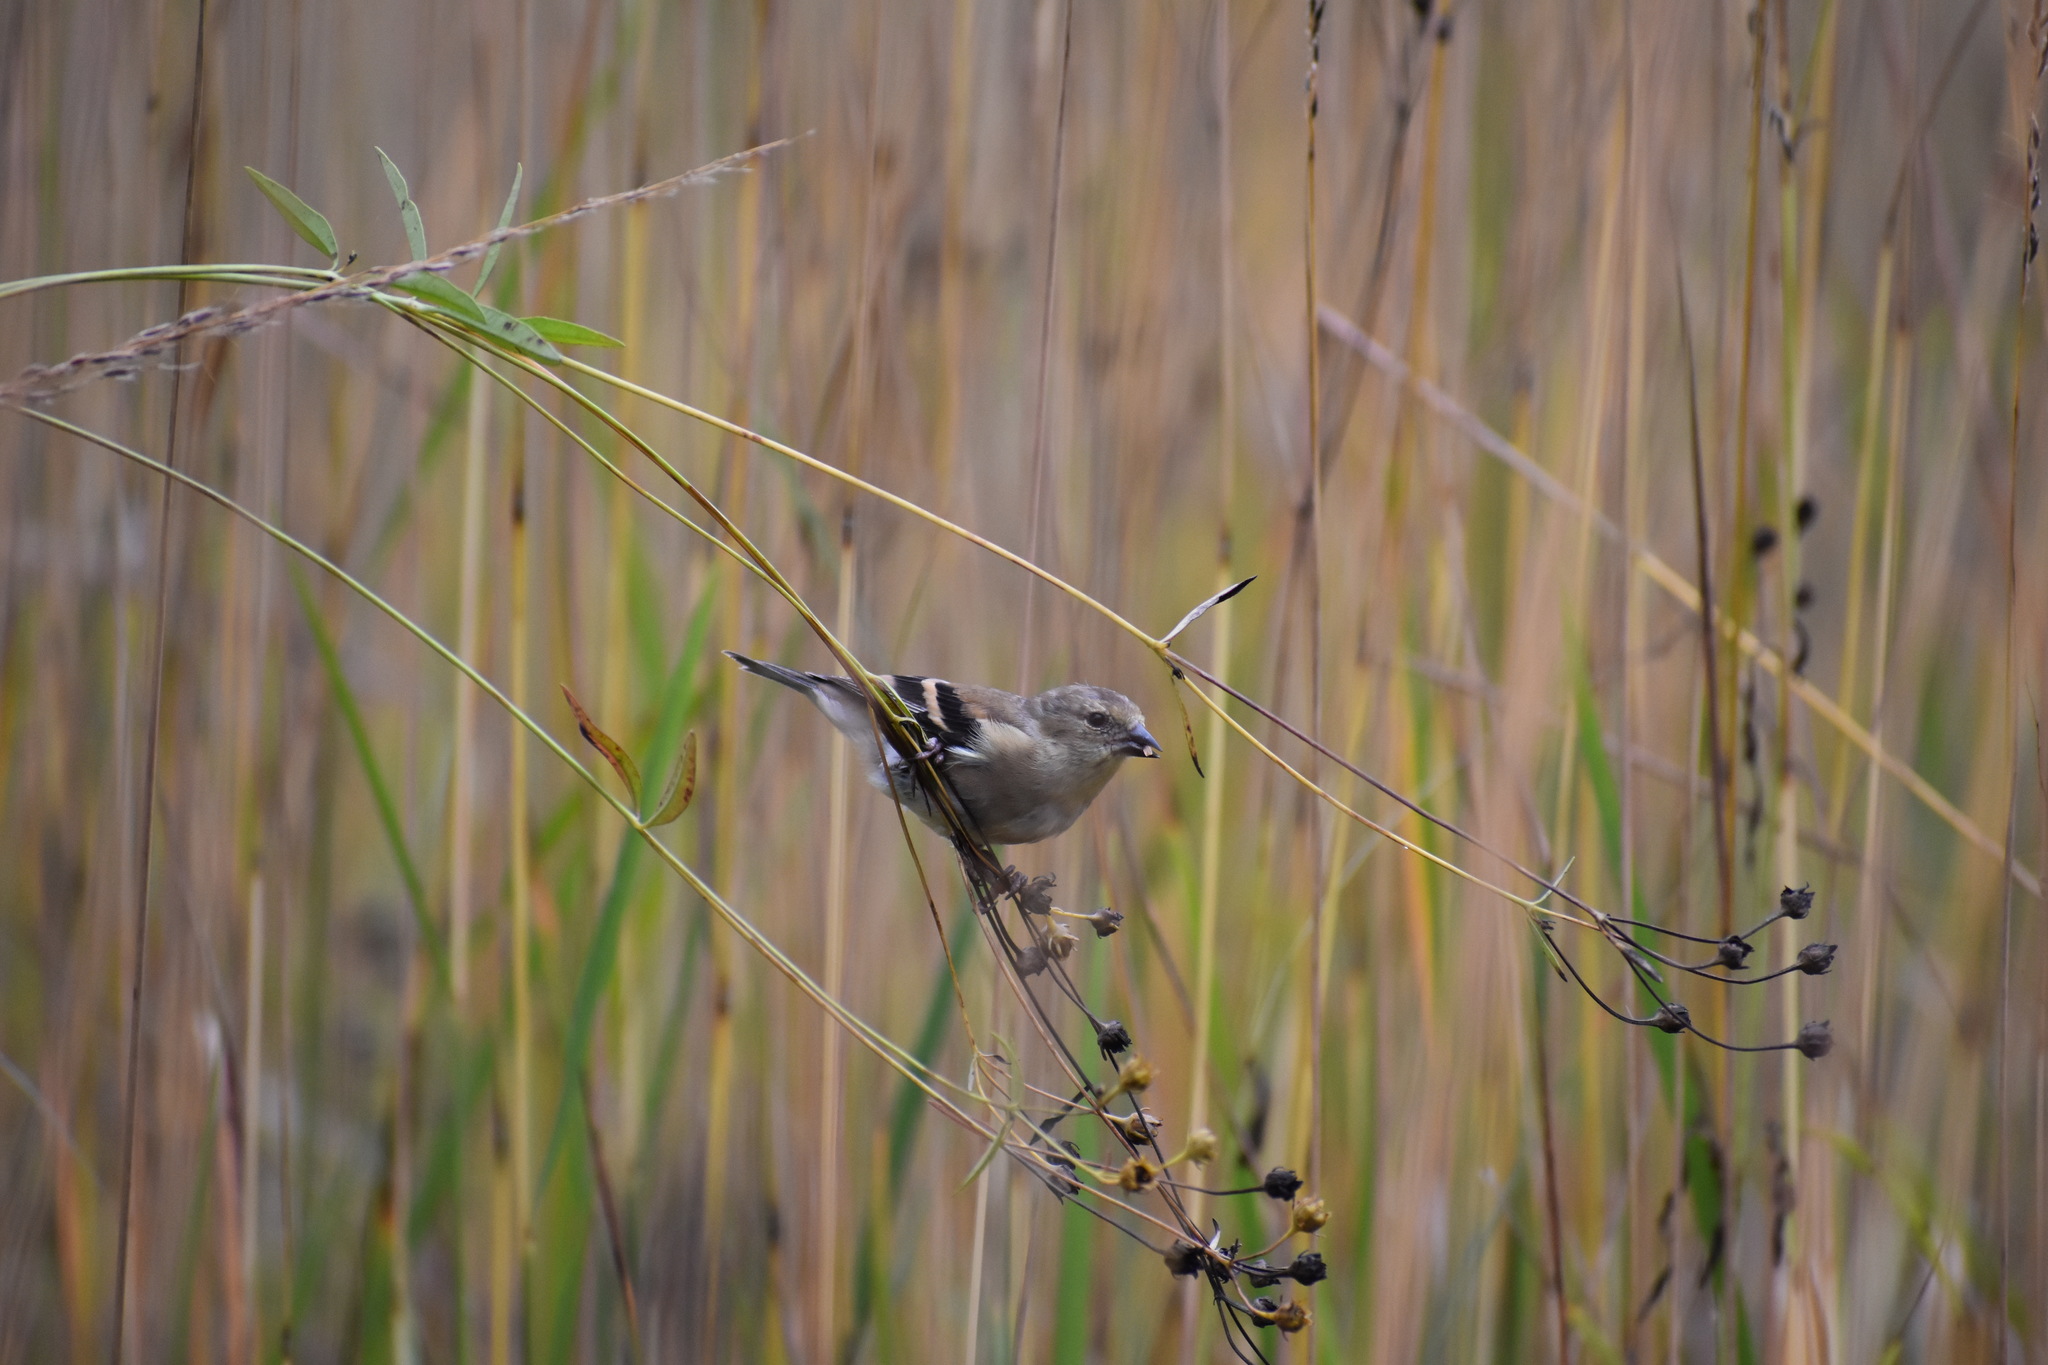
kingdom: Animalia
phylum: Chordata
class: Aves
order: Passeriformes
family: Fringillidae
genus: Spinus
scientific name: Spinus tristis
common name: American goldfinch
